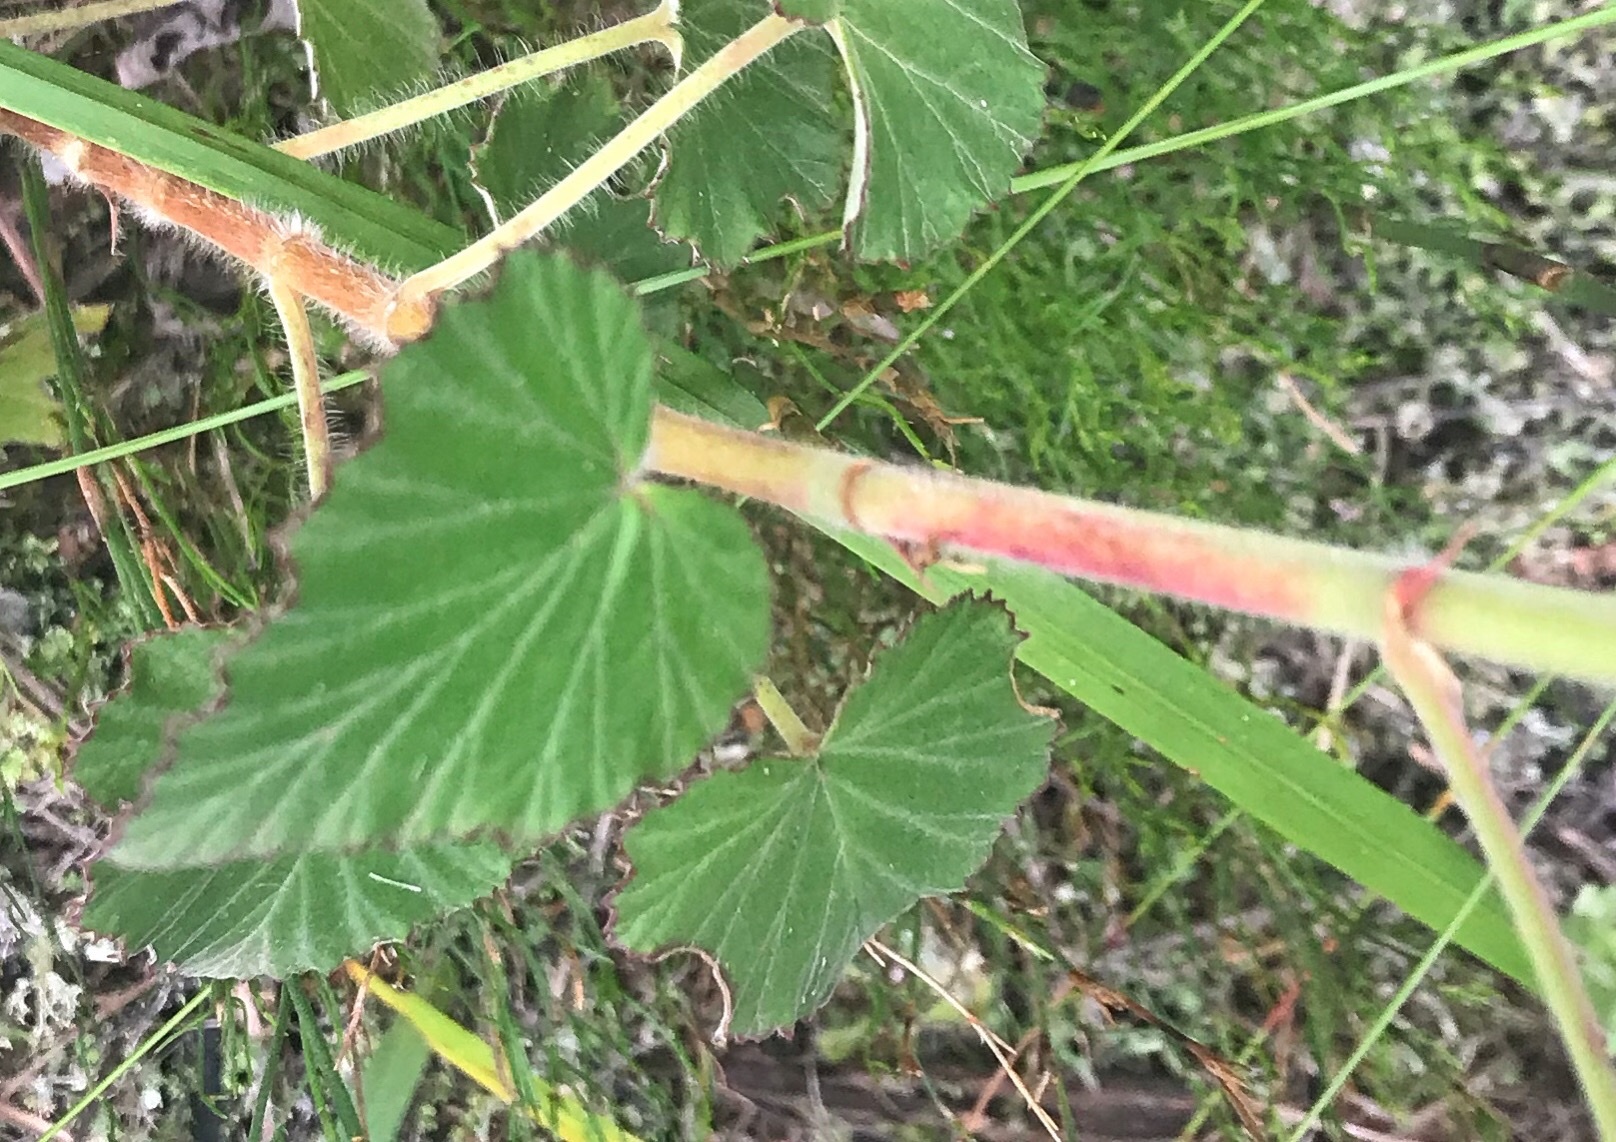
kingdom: Plantae
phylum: Tracheophyta
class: Magnoliopsida
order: Geraniales
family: Geraniaceae
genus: Pelargonium
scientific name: Pelargonium cordifolium
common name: Heart-leaf pelargonium
